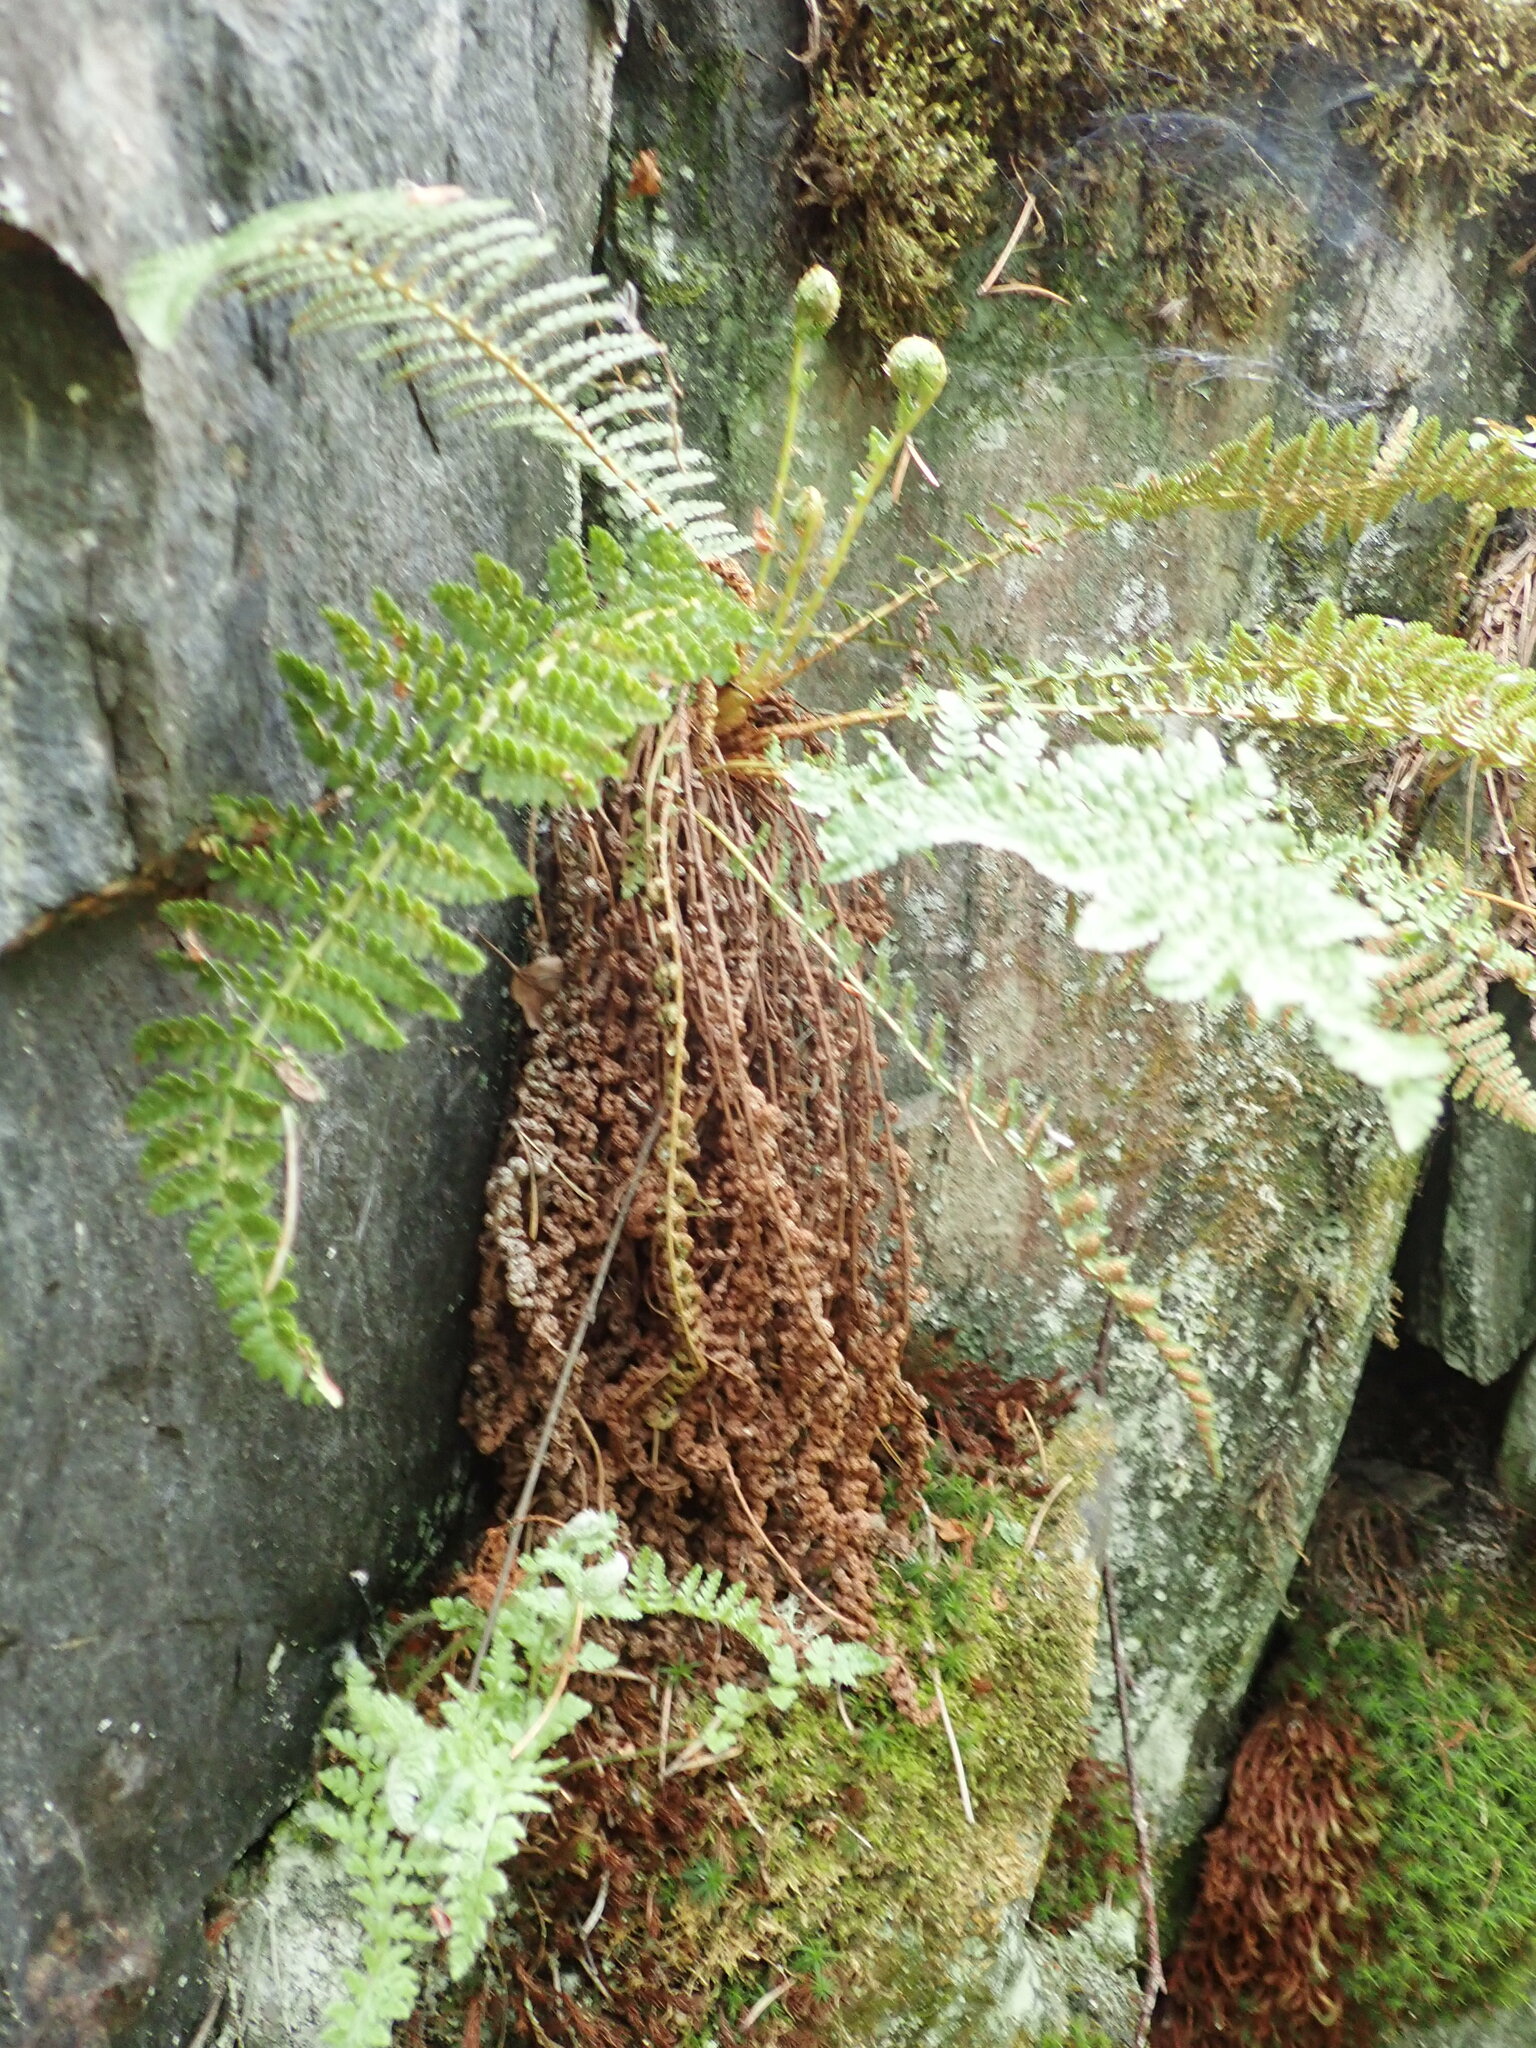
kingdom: Plantae
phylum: Tracheophyta
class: Polypodiopsida
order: Polypodiales
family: Dryopteridaceae
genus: Dryopteris
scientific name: Dryopteris fragrans
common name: Fragrant wood fern
